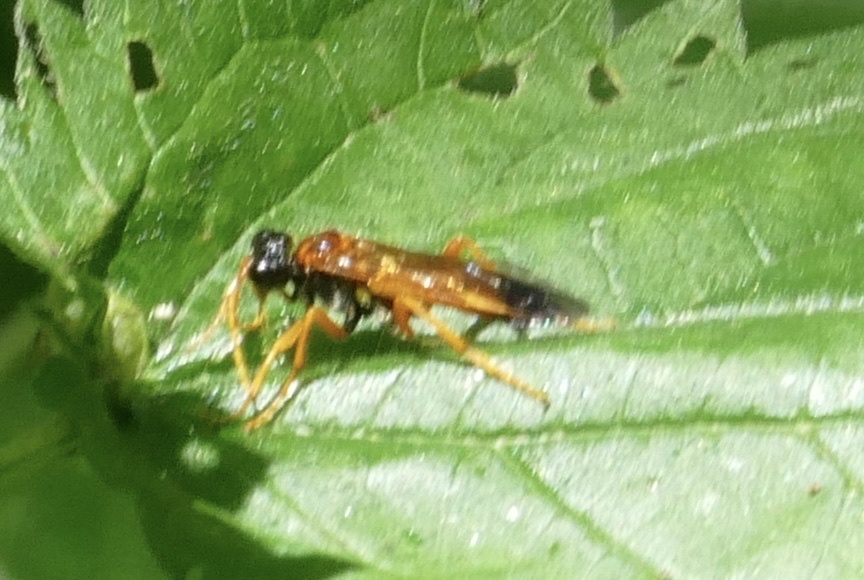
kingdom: Animalia
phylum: Arthropoda
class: Insecta
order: Hymenoptera
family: Tenthredinidae
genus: Tenthredo
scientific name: Tenthredo campestris
